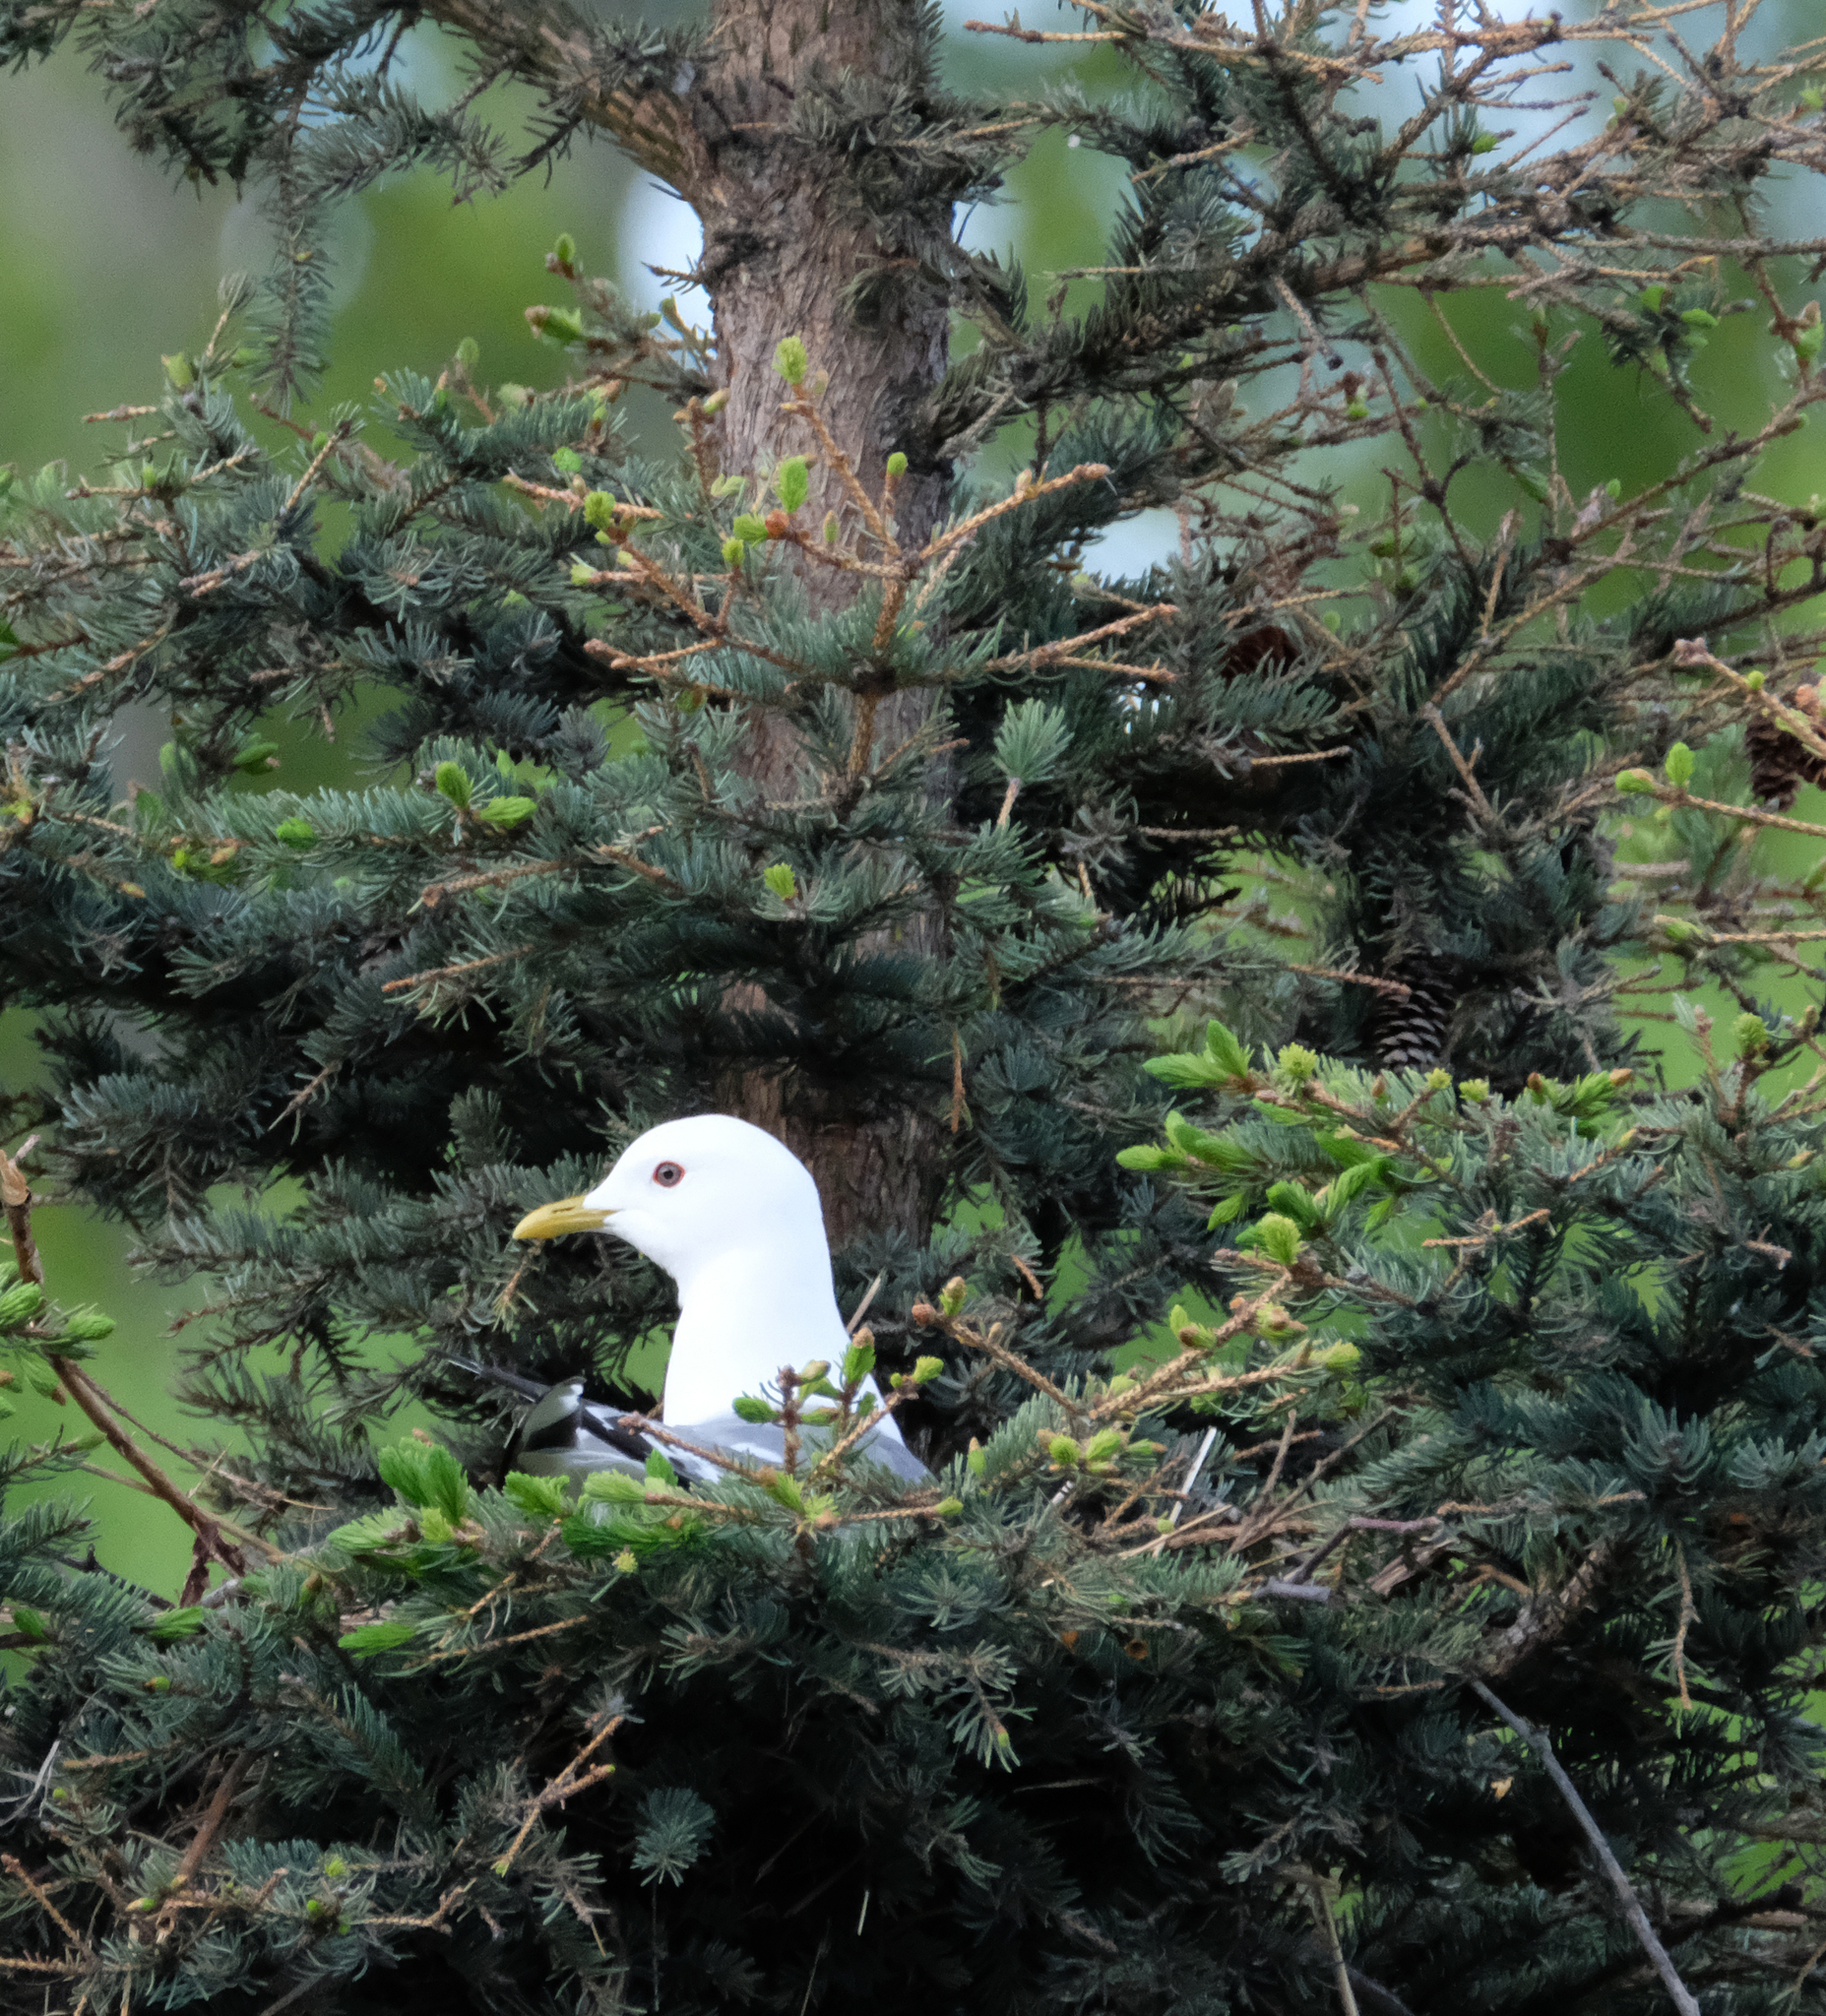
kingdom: Animalia
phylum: Chordata
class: Aves
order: Charadriiformes
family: Laridae
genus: Larus
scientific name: Larus brachyrhynchus
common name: Short-billed gull
